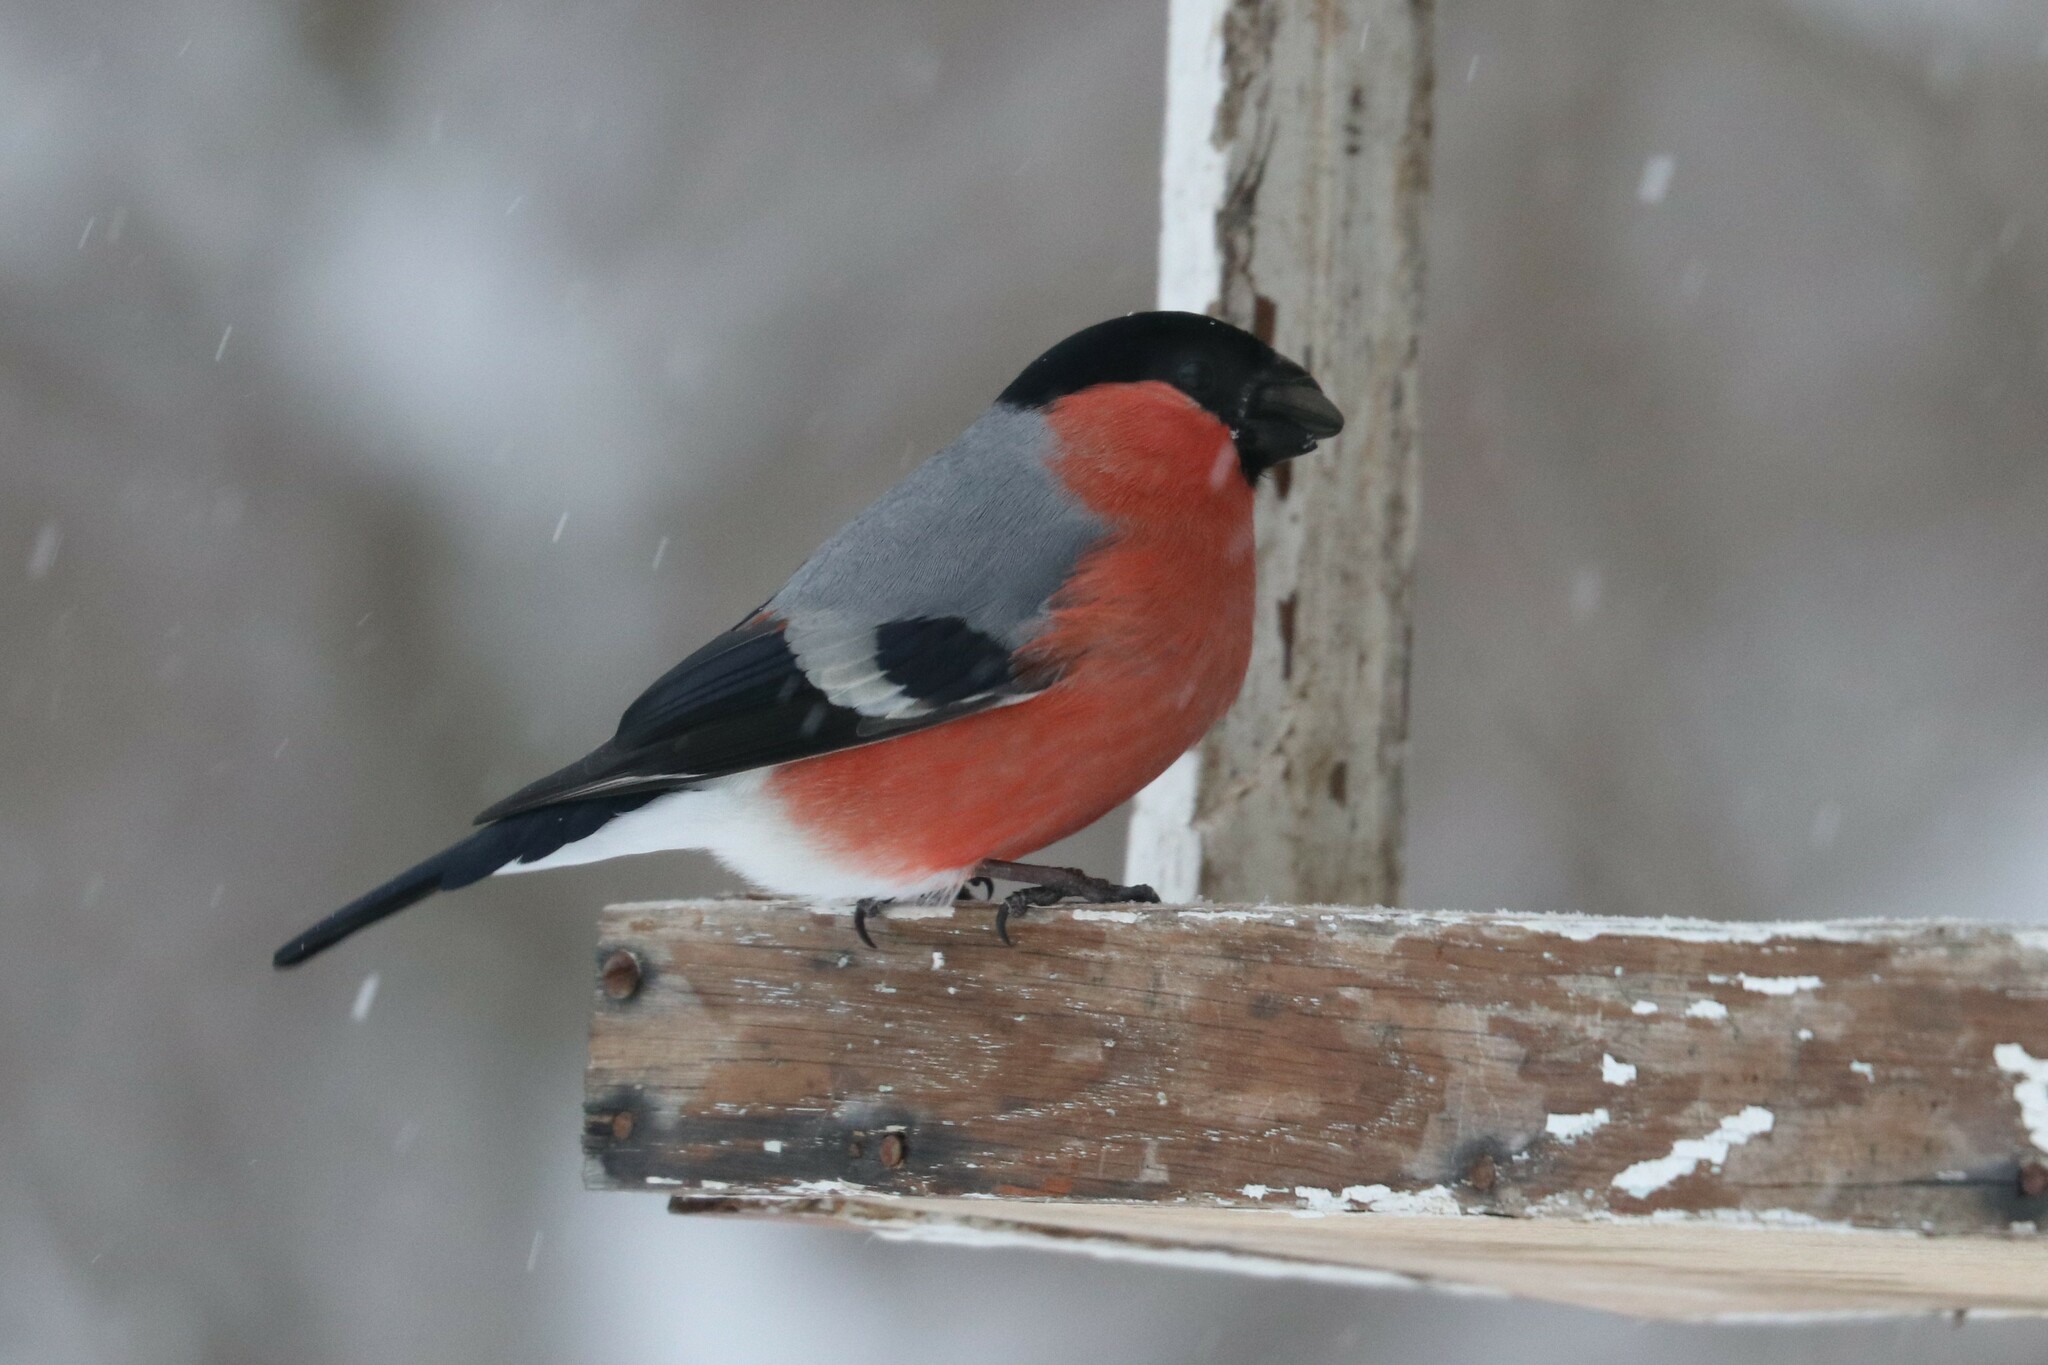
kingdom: Animalia
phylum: Chordata
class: Aves
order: Passeriformes
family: Fringillidae
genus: Pyrrhula
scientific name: Pyrrhula pyrrhula
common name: Eurasian bullfinch
